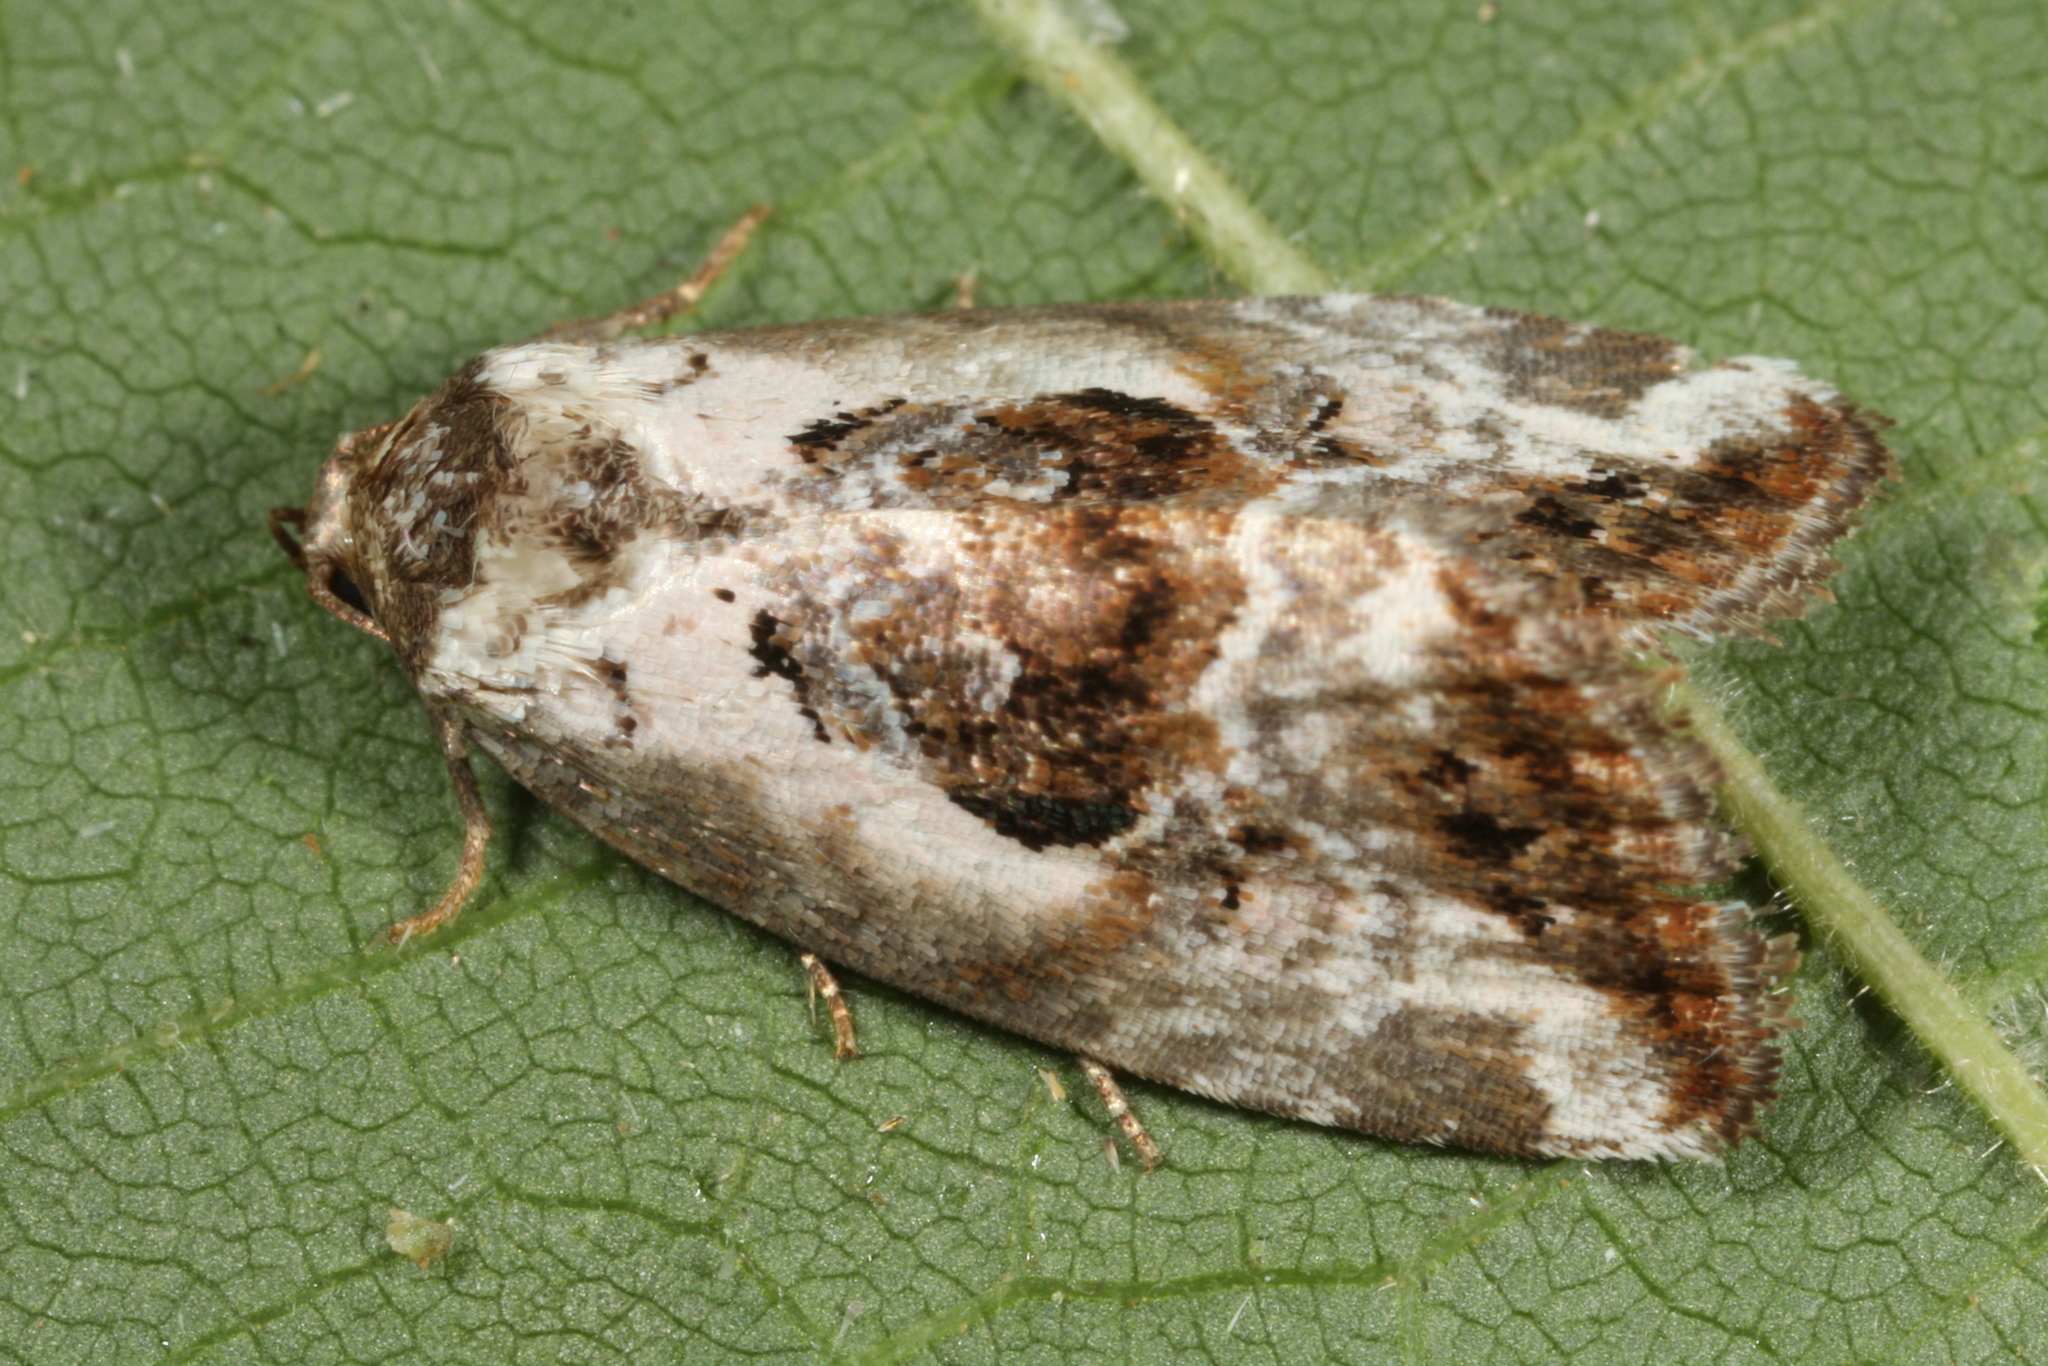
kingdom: Animalia
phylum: Arthropoda
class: Insecta
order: Lepidoptera
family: Noctuidae
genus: Elaphria
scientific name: Elaphria venustula
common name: Rosy marbled
